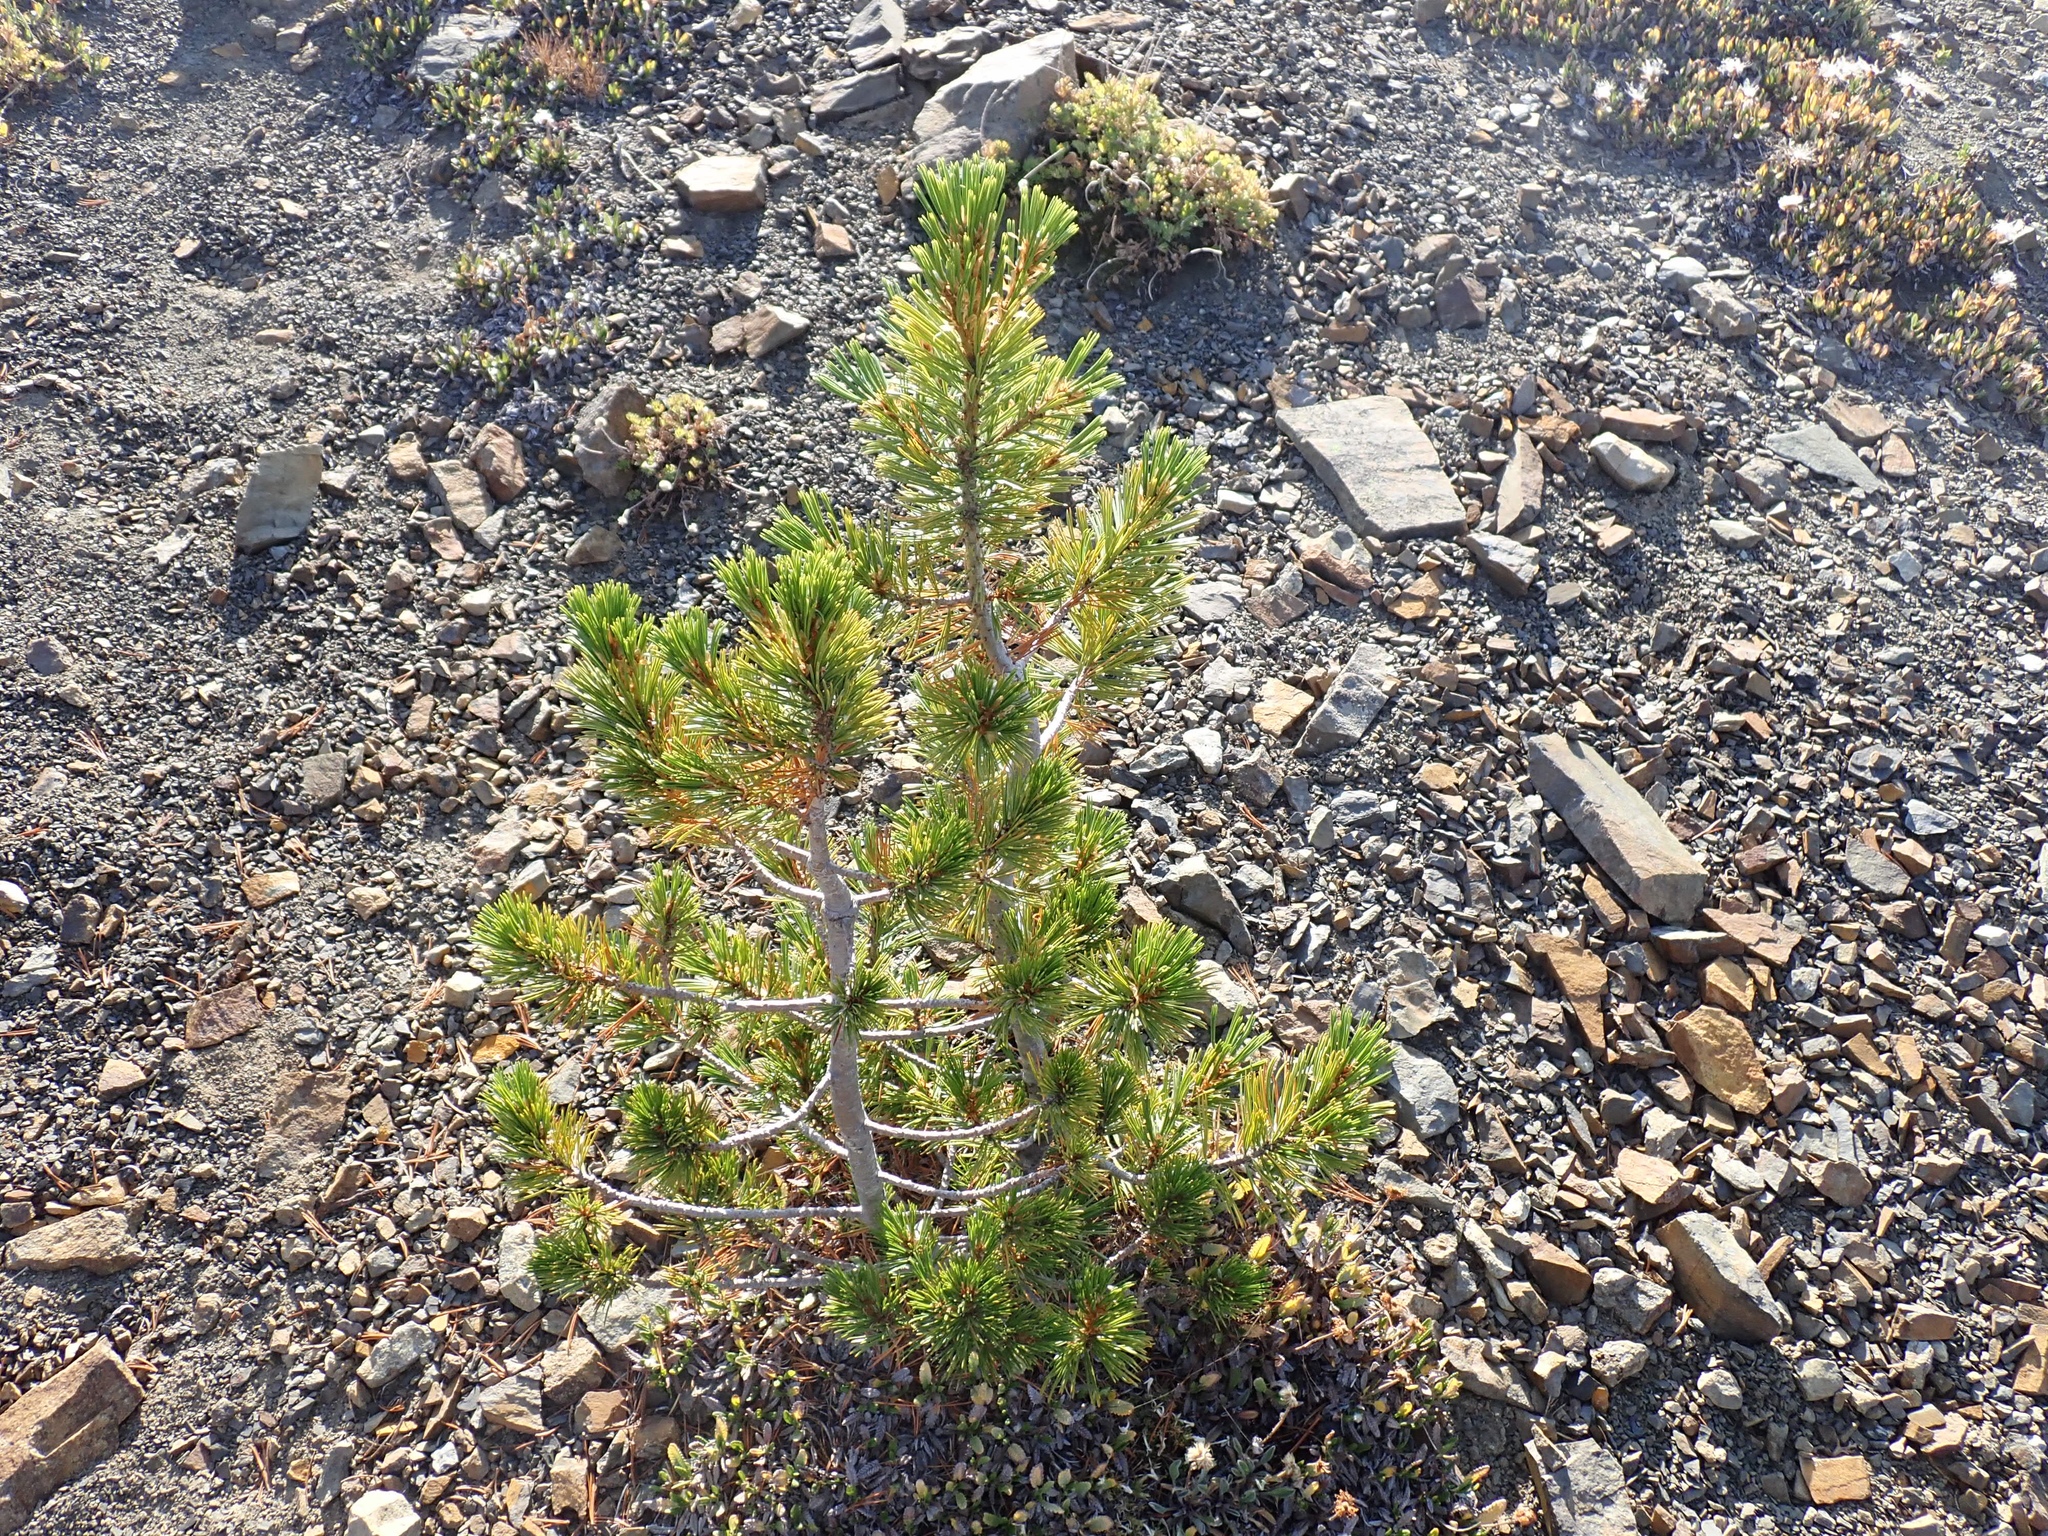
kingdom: Plantae
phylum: Tracheophyta
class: Pinopsida
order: Pinales
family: Pinaceae
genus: Pinus
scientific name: Pinus albicaulis
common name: Whitebark pine
